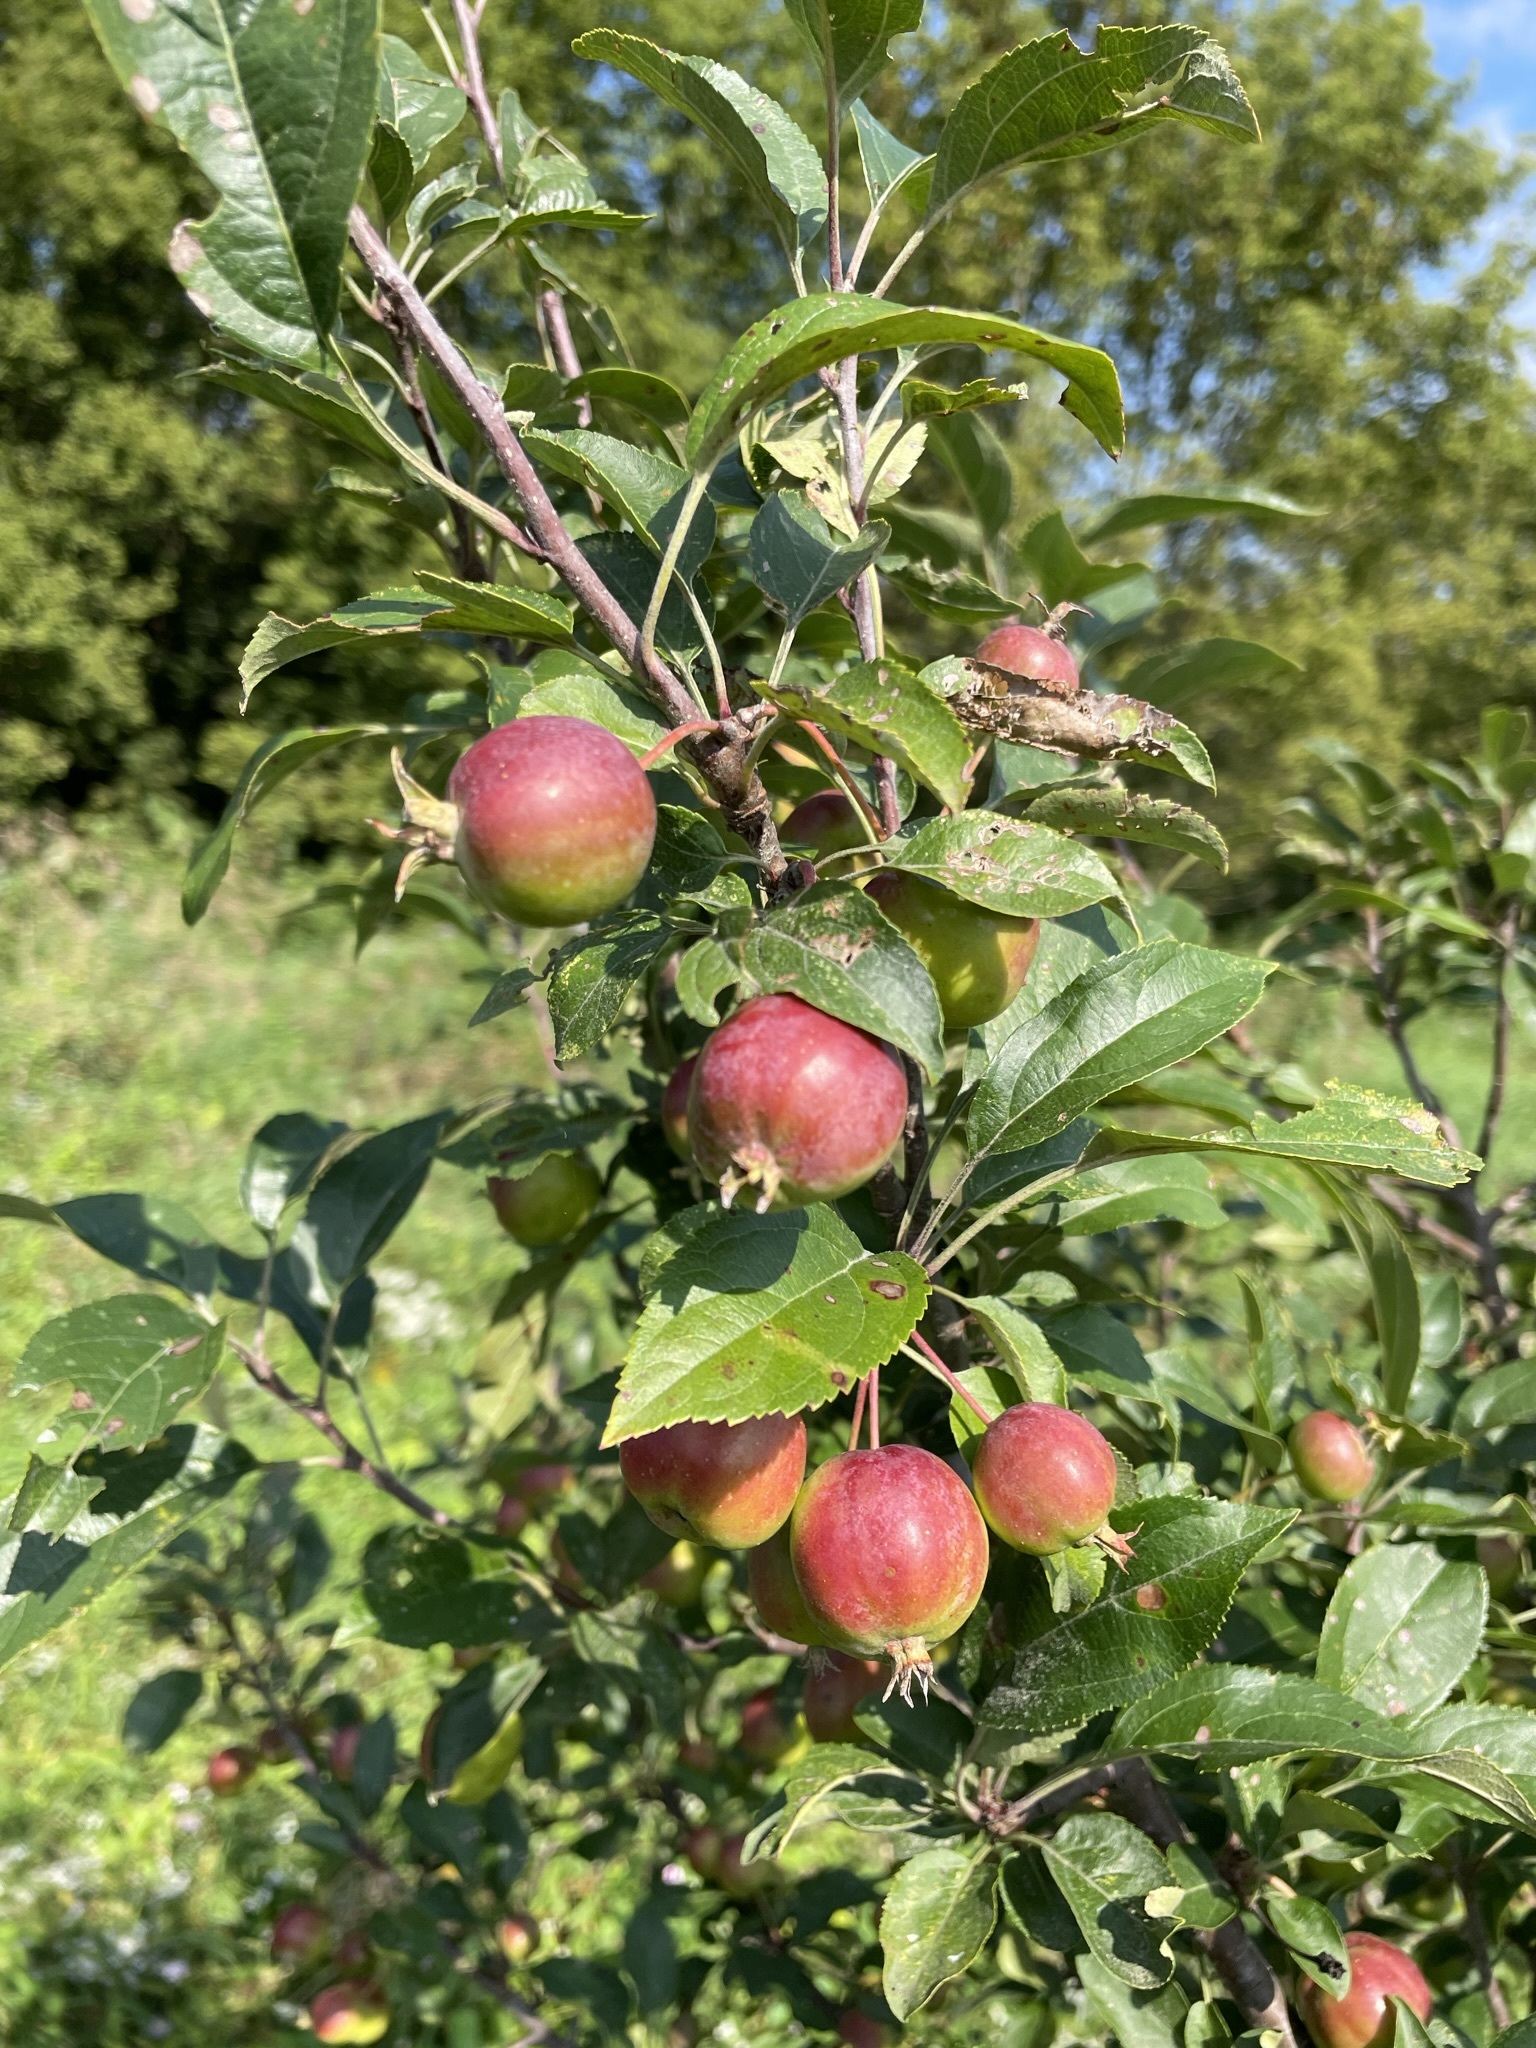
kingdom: Plantae
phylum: Tracheophyta
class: Magnoliopsida
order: Rosales
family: Rosaceae
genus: Malus
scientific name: Malus domestica
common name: Apple
